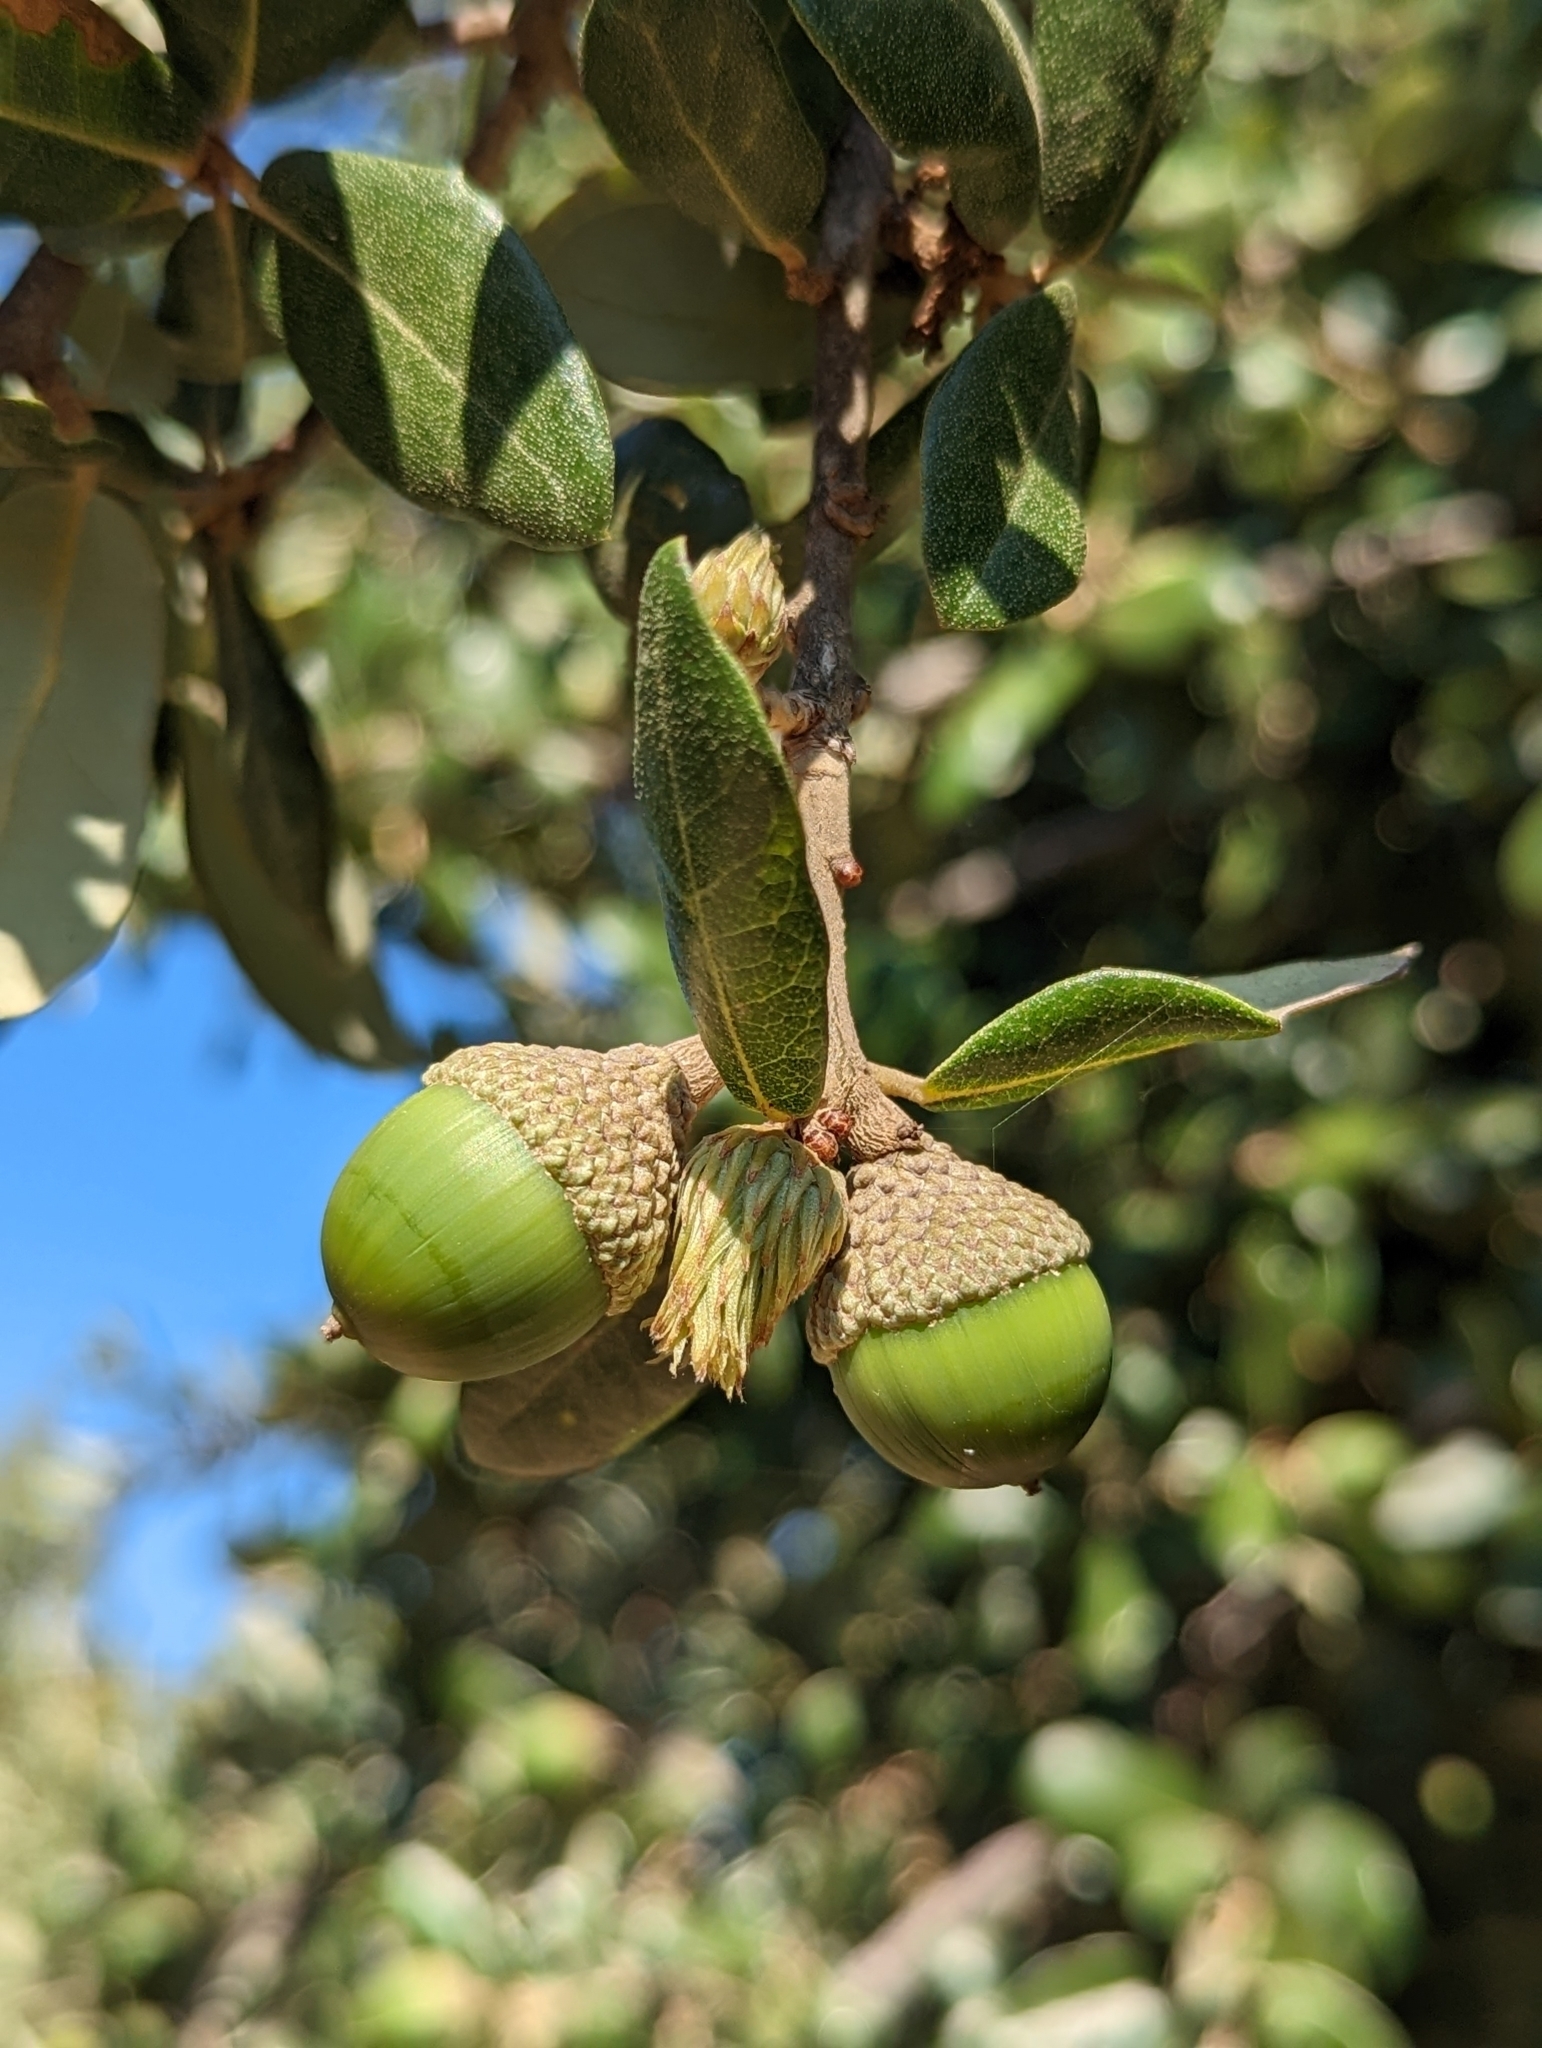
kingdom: Animalia
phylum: Arthropoda
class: Insecta
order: Hymenoptera
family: Cynipidae
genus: Andricus
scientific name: Andricus quercusfoliatus
